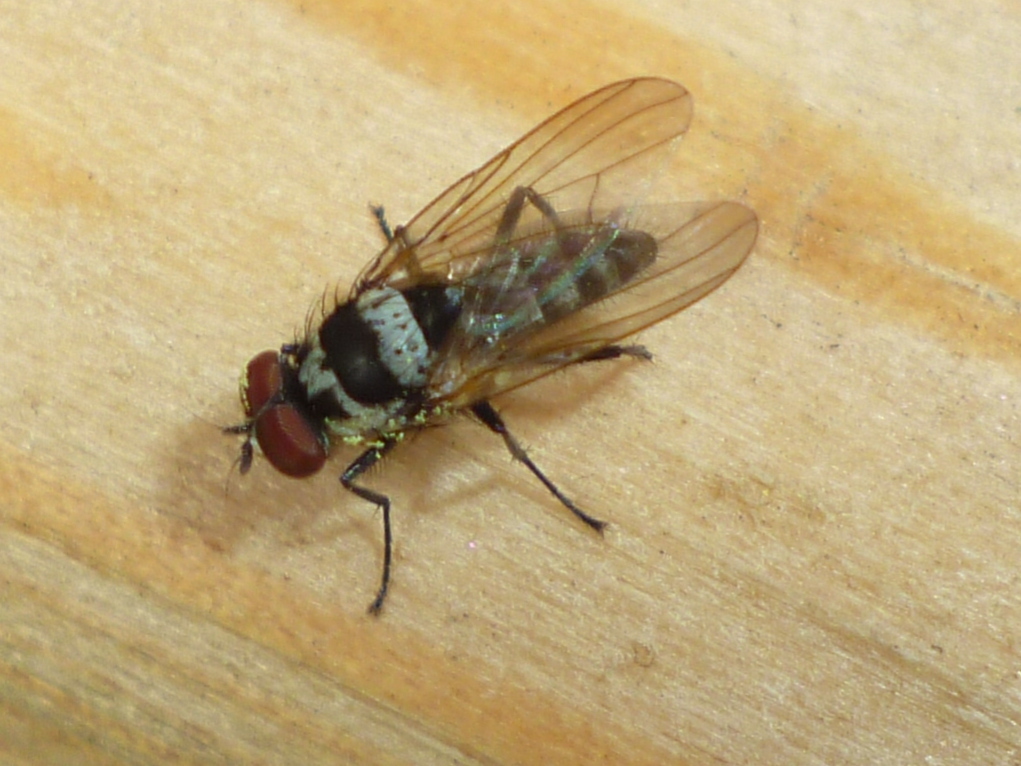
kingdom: Animalia
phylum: Arthropoda
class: Insecta
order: Diptera
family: Anthomyiidae
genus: Anthomyia
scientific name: Anthomyia oculifera
